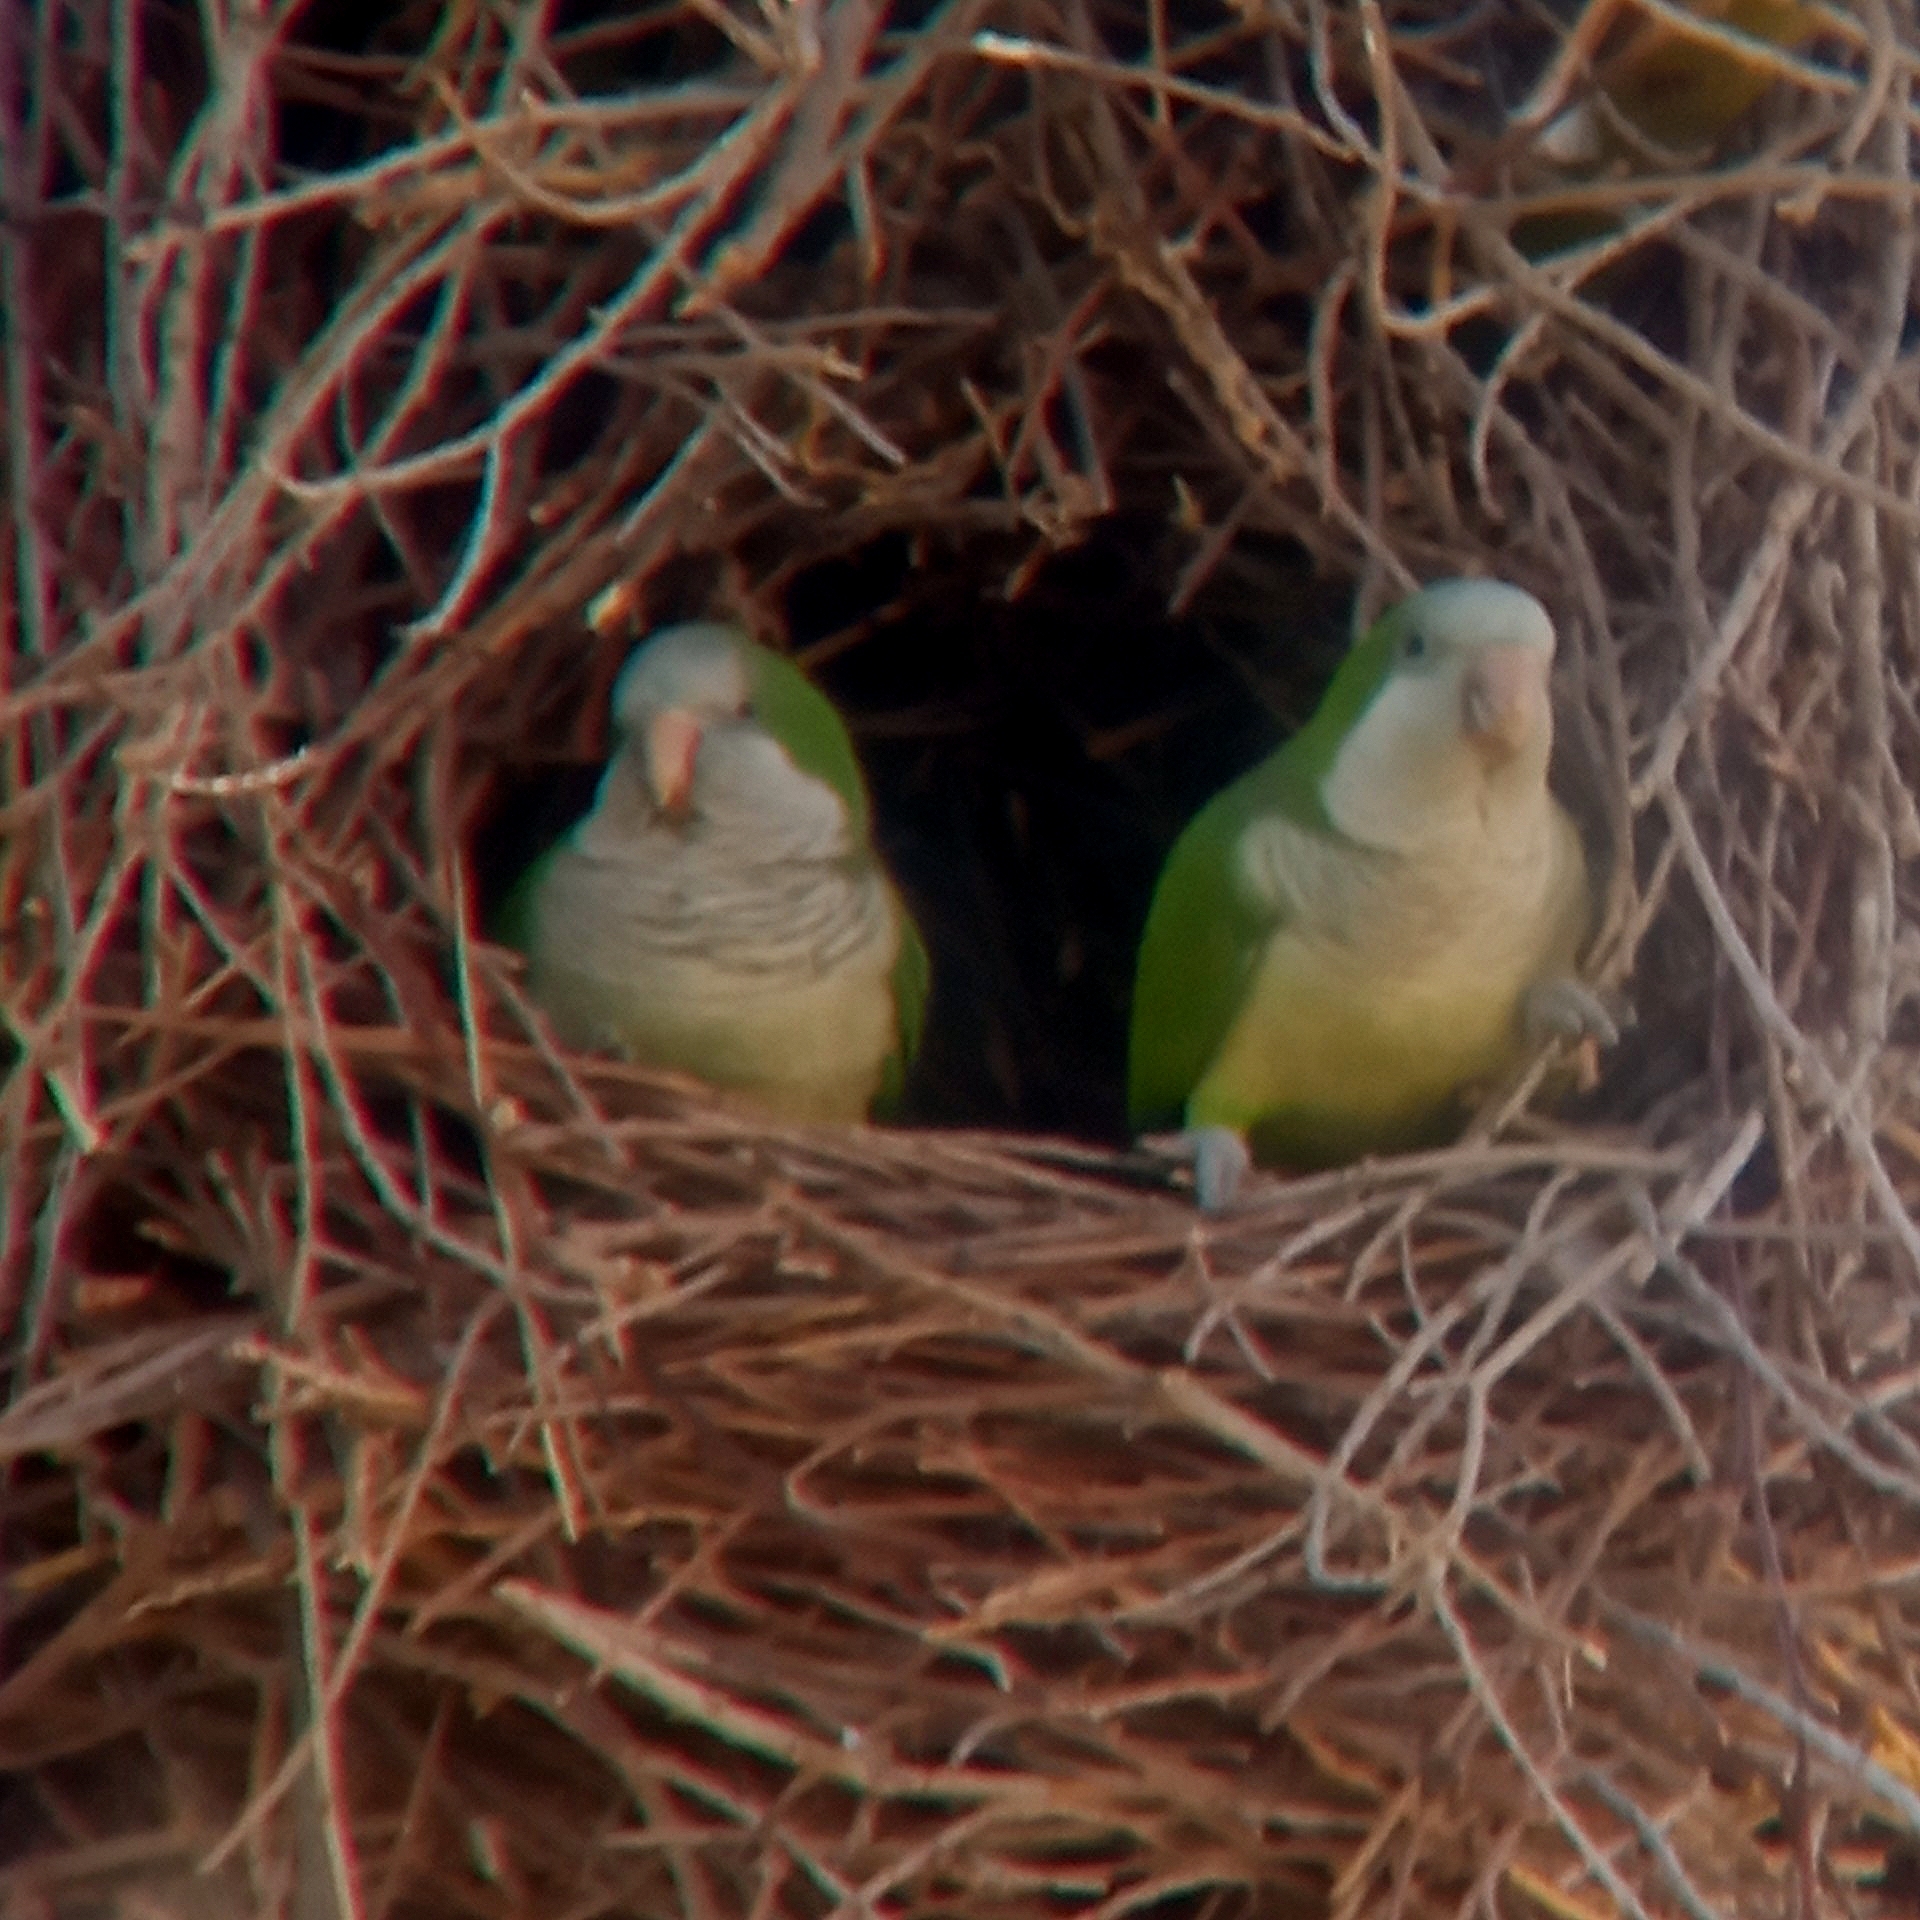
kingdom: Animalia
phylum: Chordata
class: Aves
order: Psittaciformes
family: Psittacidae
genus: Myiopsitta
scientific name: Myiopsitta monachus
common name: Monk parakeet
